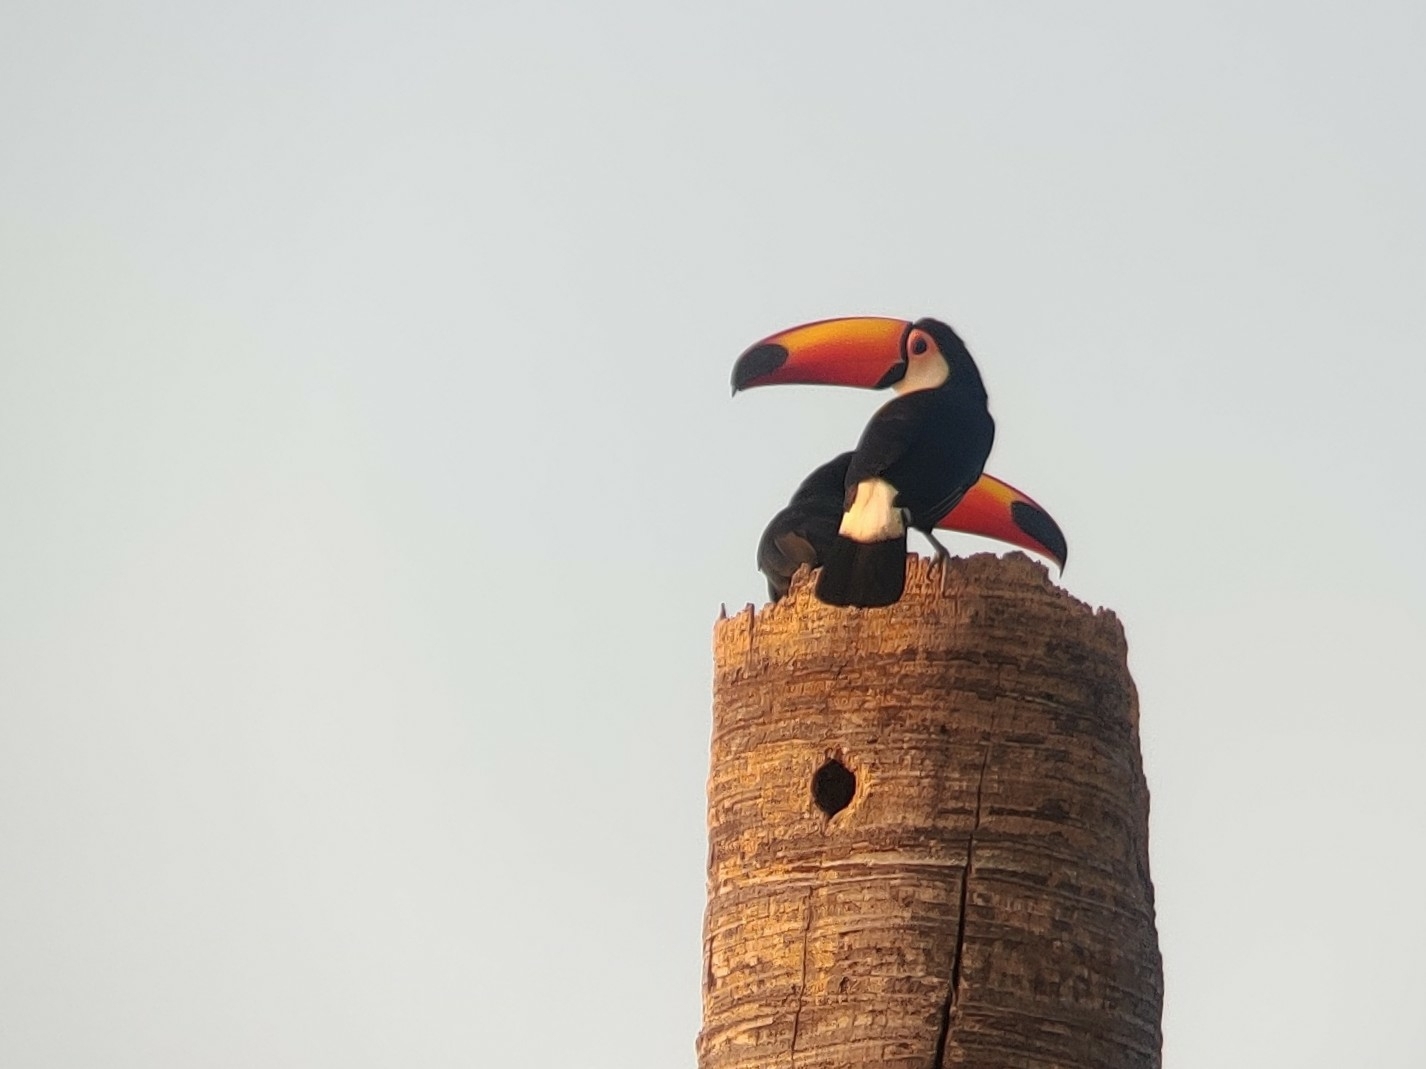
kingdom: Animalia
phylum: Chordata
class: Aves
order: Piciformes
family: Ramphastidae
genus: Ramphastos
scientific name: Ramphastos toco
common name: Toco toucan
